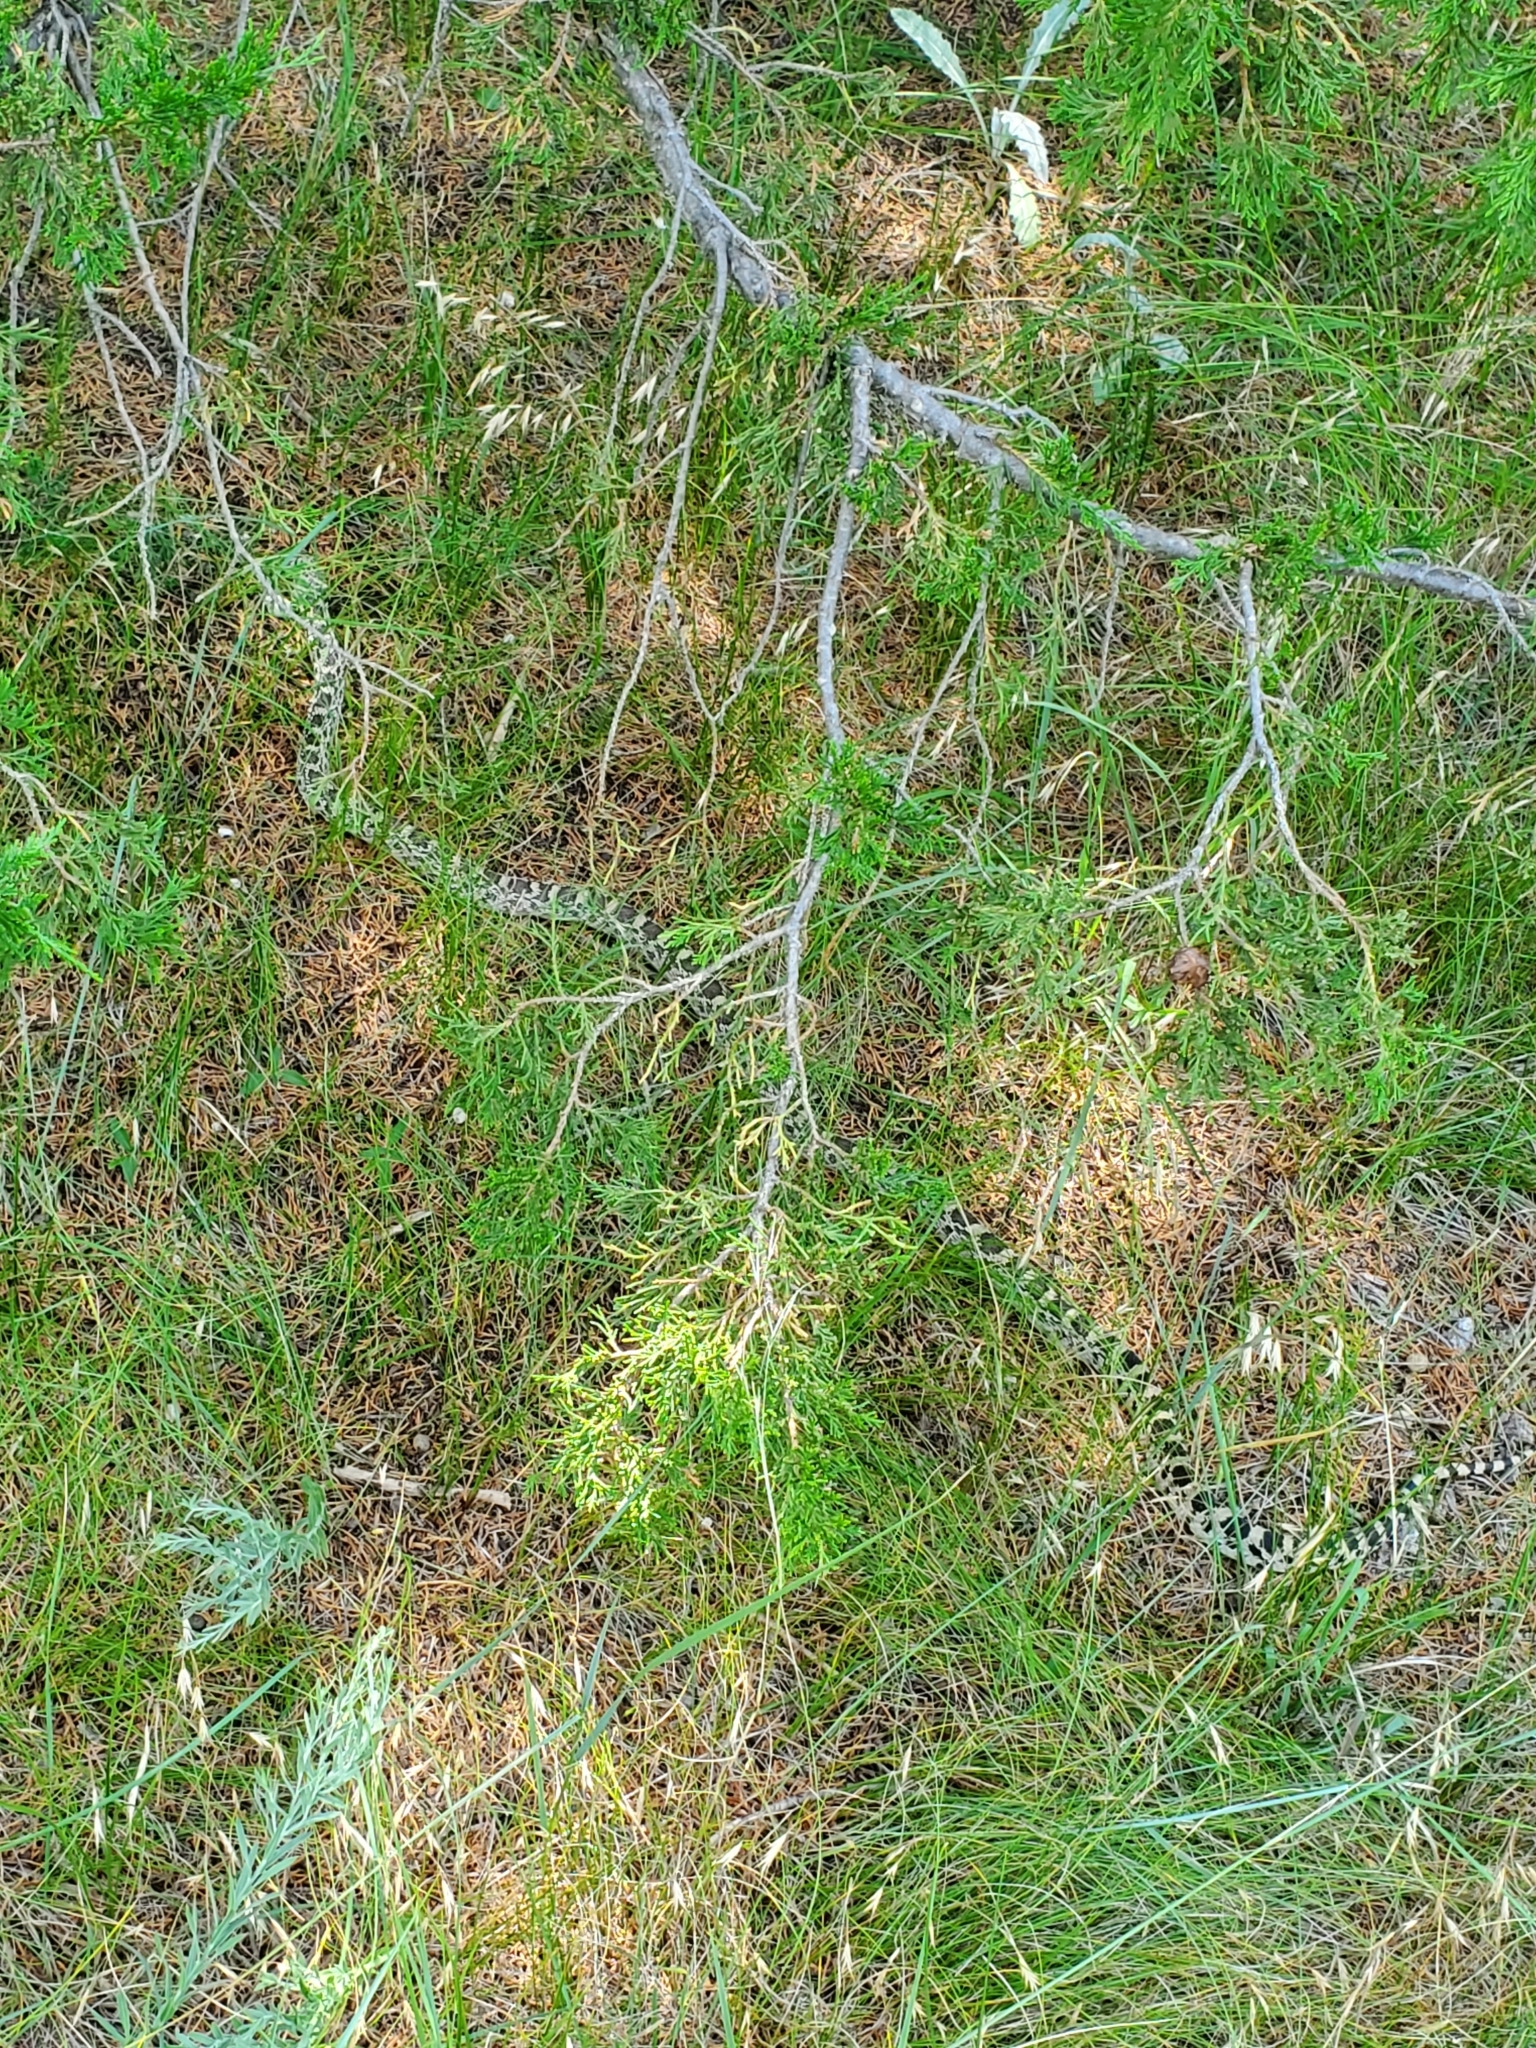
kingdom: Animalia
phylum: Chordata
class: Squamata
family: Colubridae
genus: Pituophis
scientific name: Pituophis catenifer
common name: Gopher snake
